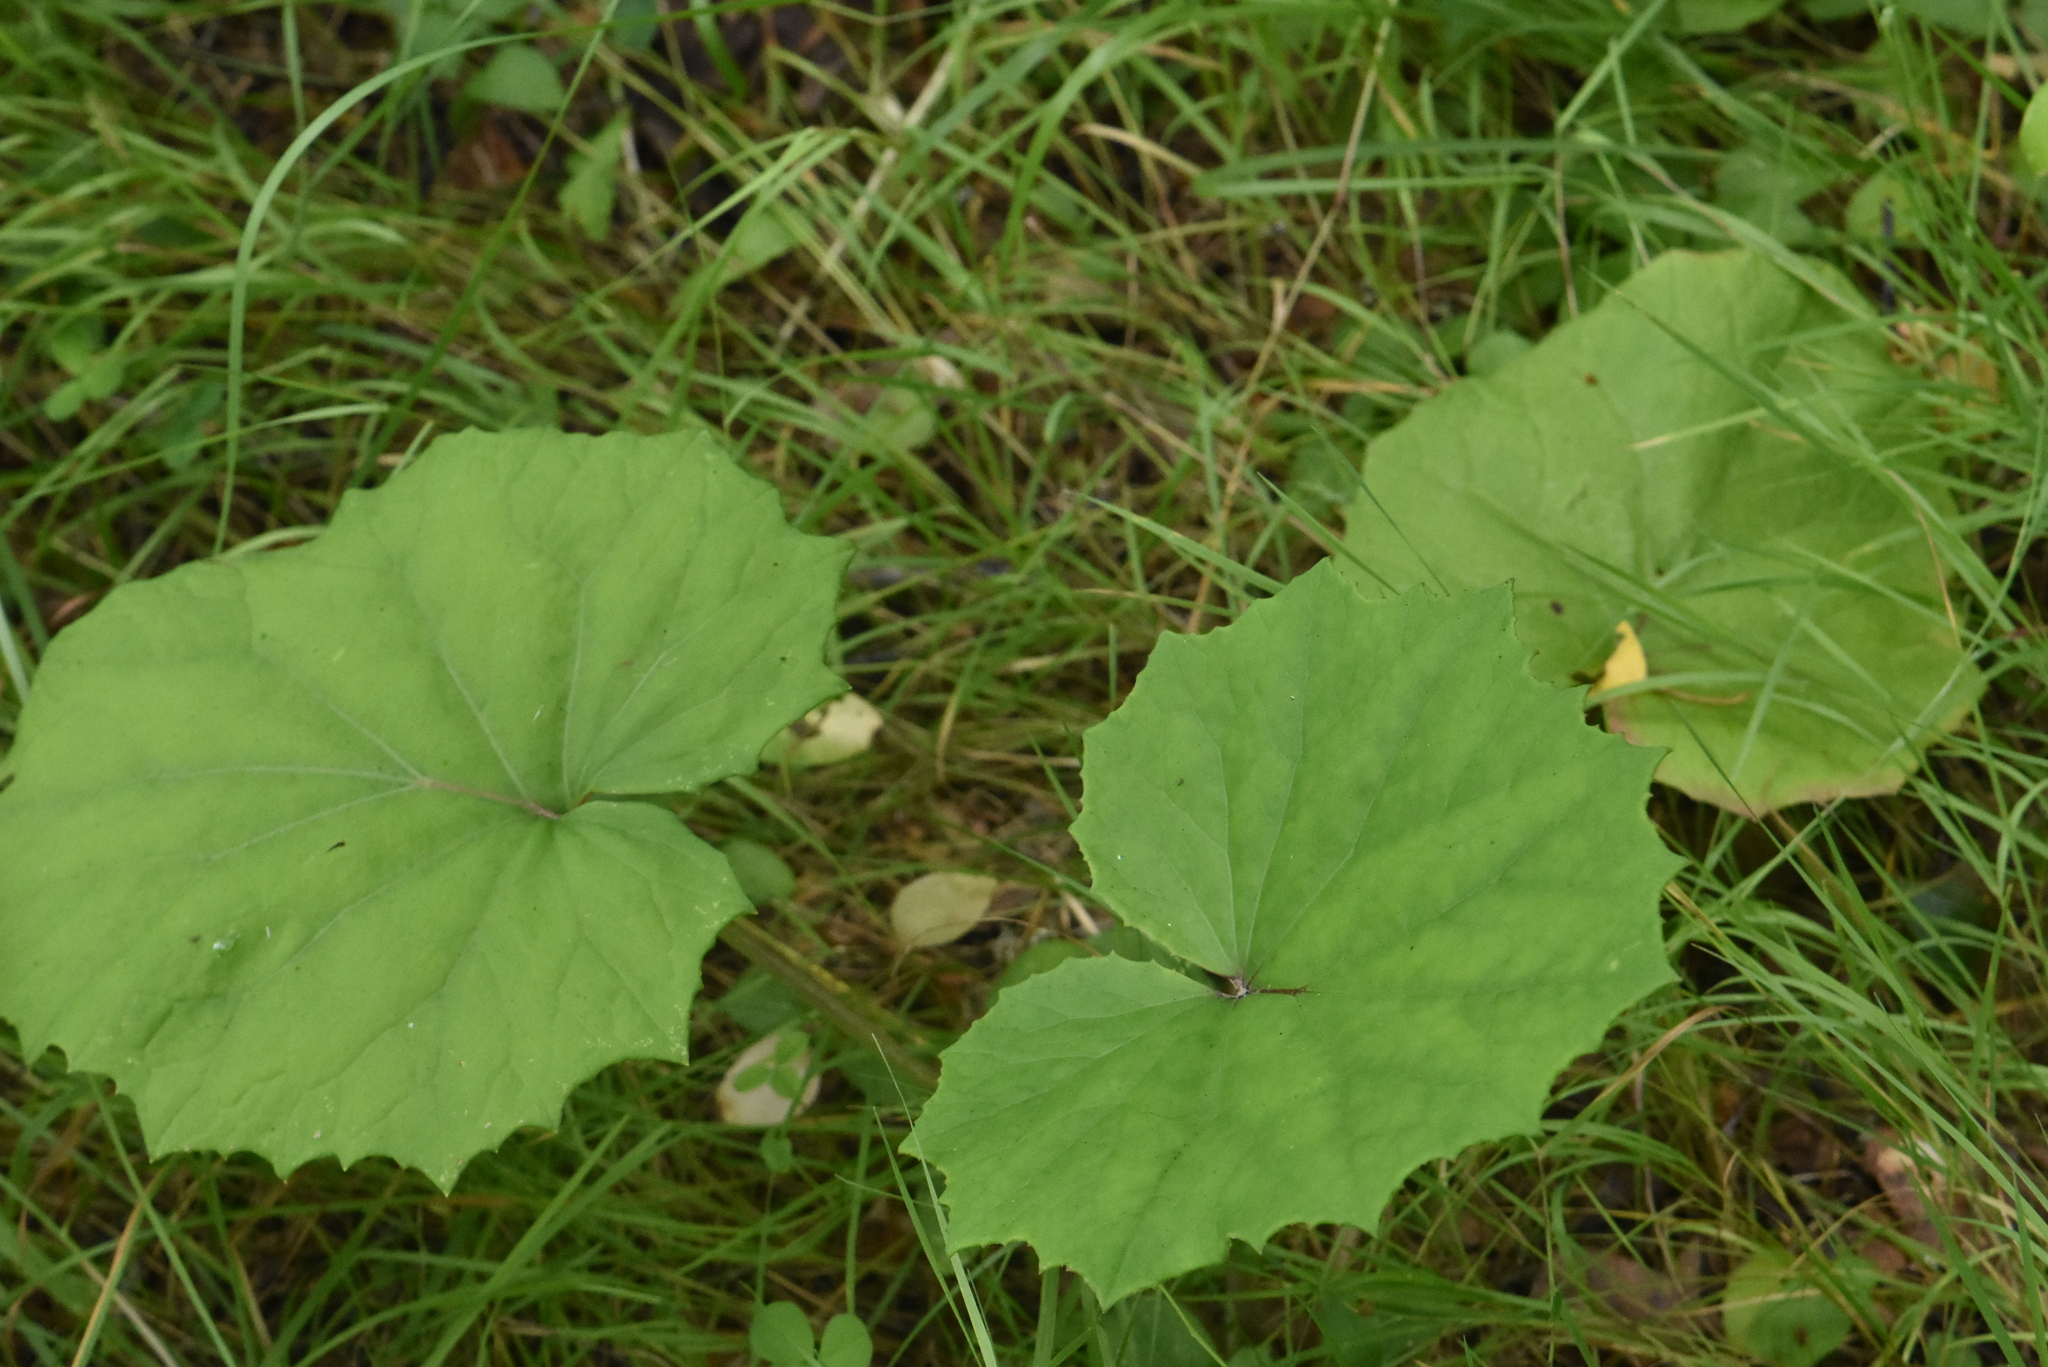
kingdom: Plantae
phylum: Tracheophyta
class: Magnoliopsida
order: Asterales
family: Asteraceae
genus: Tussilago
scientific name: Tussilago farfara
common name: Coltsfoot
